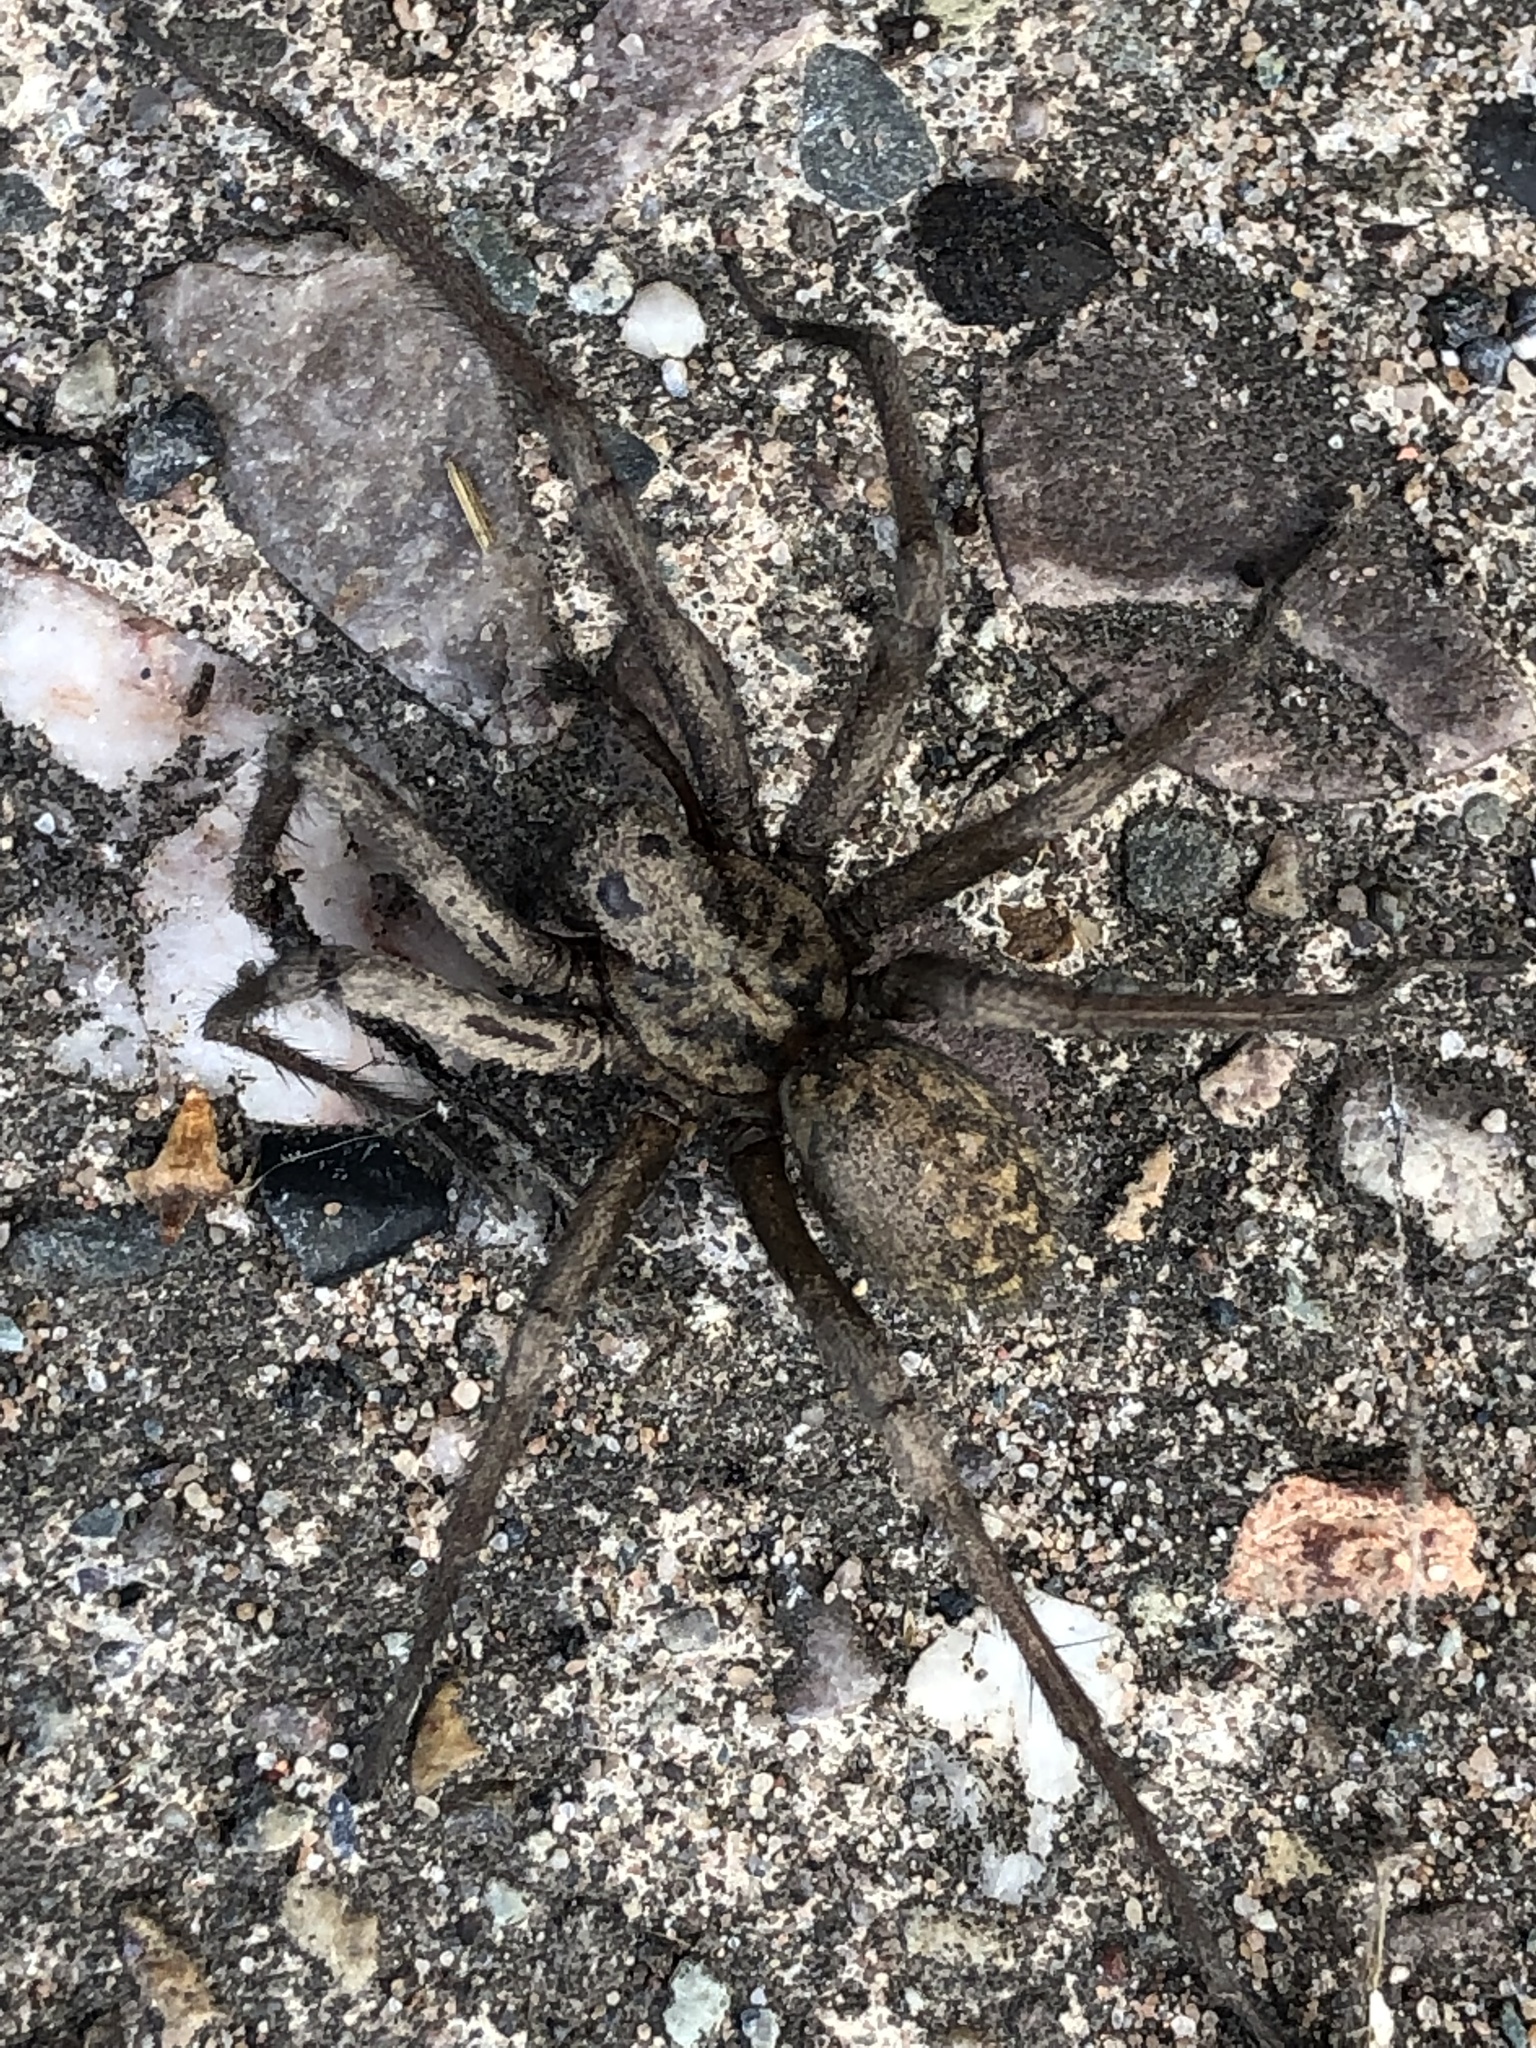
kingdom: Animalia
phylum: Arthropoda
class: Arachnida
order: Araneae
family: Agelenidae
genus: Eratigena
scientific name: Eratigena
